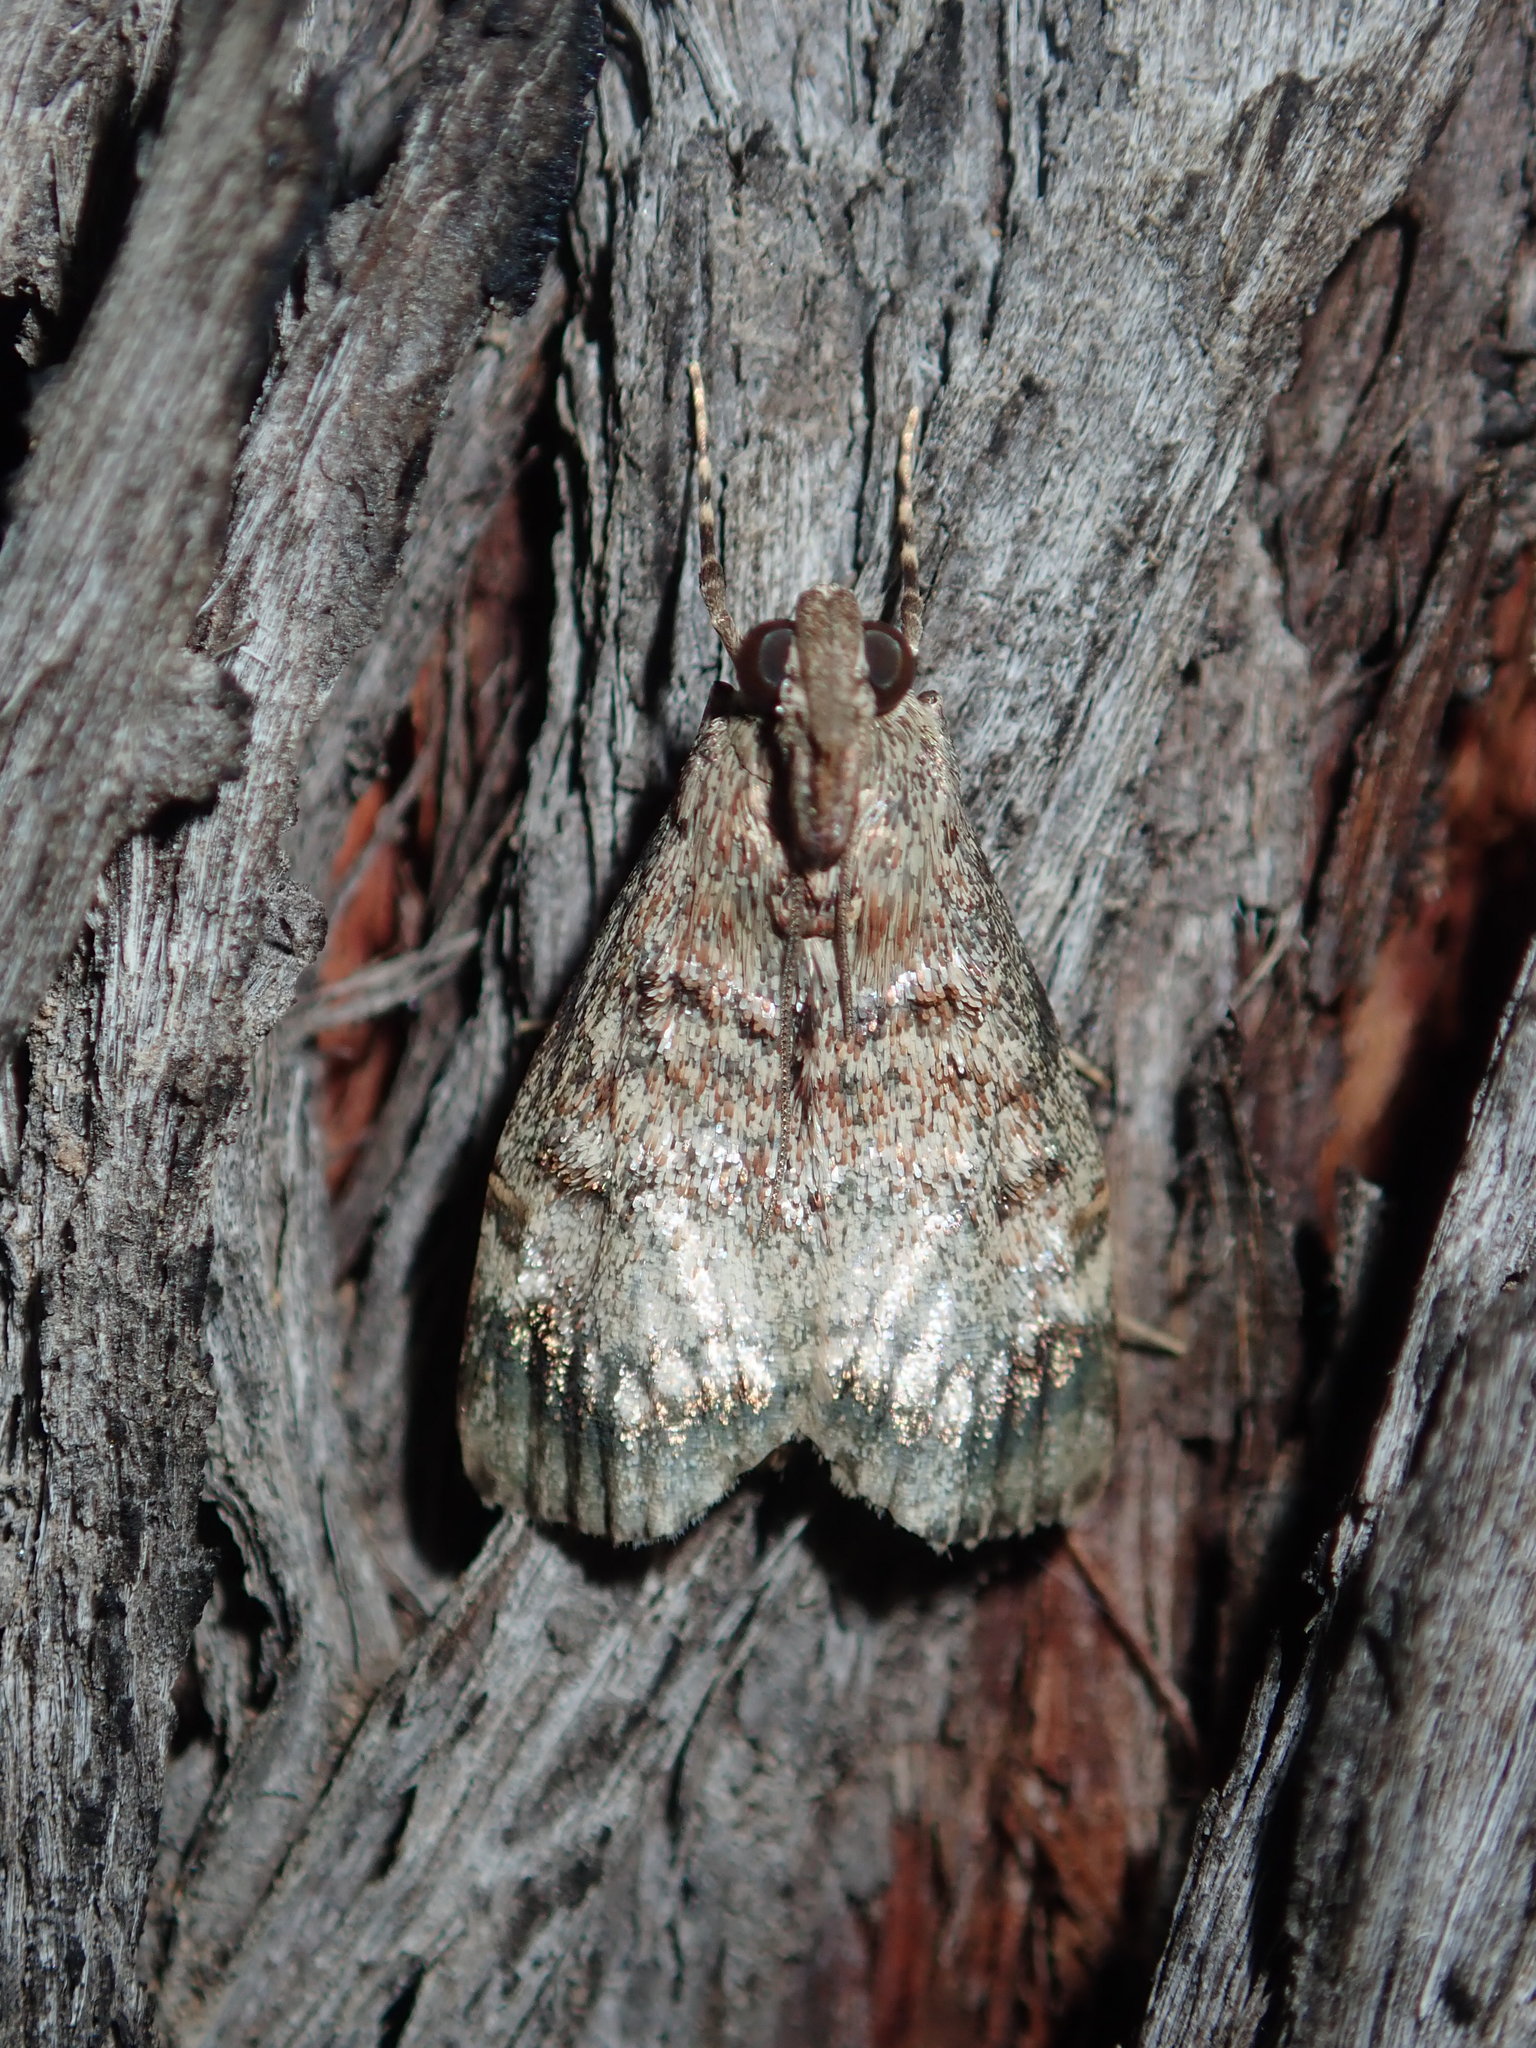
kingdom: Animalia
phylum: Arthropoda
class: Insecta
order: Lepidoptera
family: Pyralidae
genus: Stericta
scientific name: Stericta concisella
